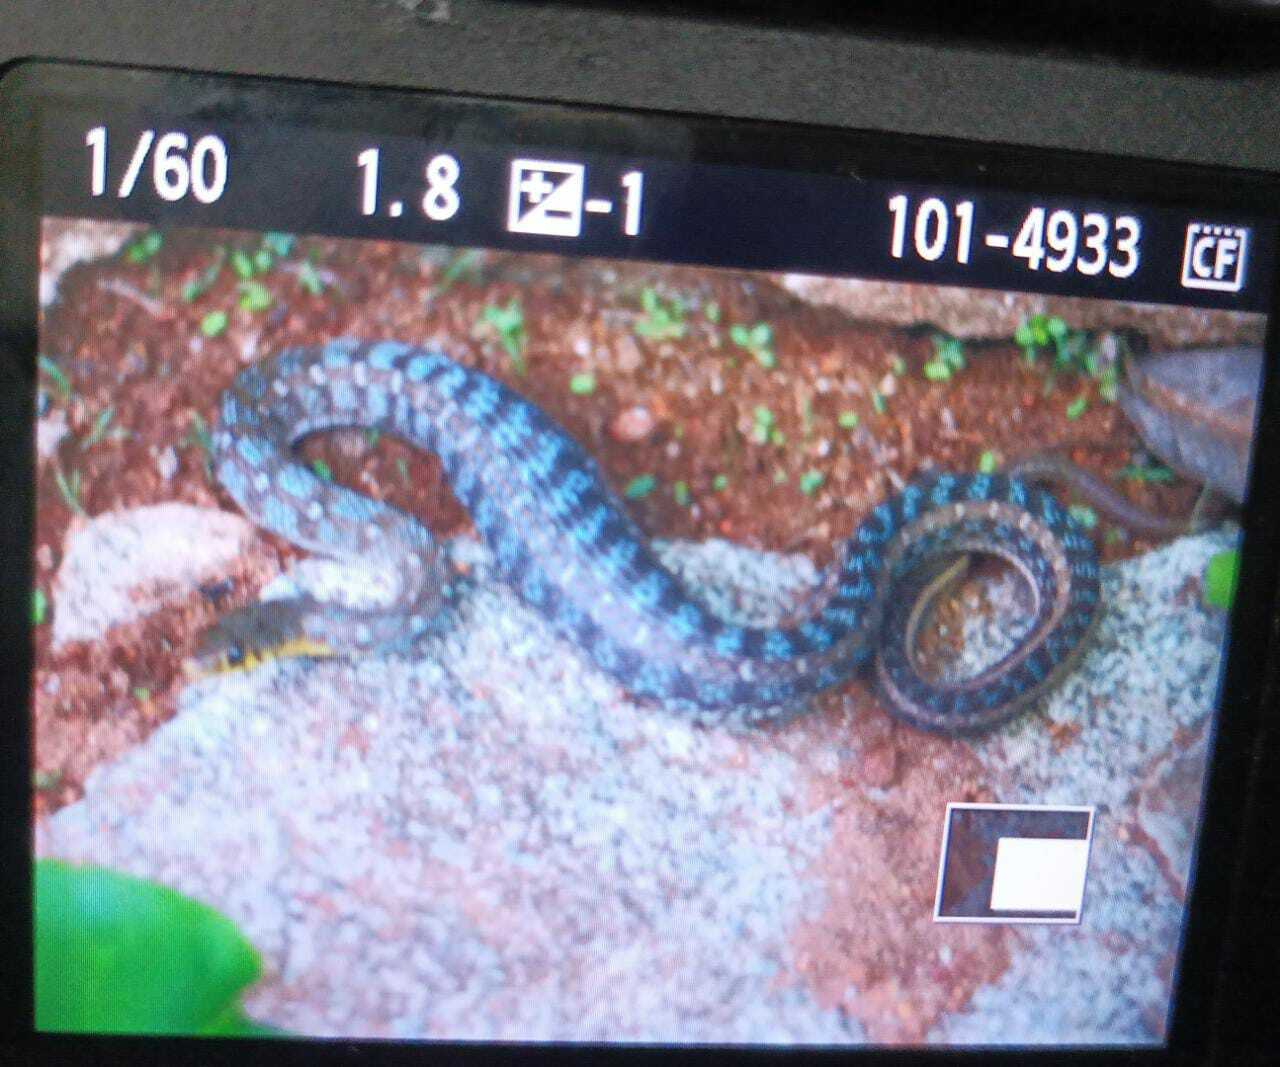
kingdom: Animalia
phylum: Chordata
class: Squamata
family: Colubridae
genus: Amphiesma
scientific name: Amphiesma stolatum
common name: Buff striped keelback
